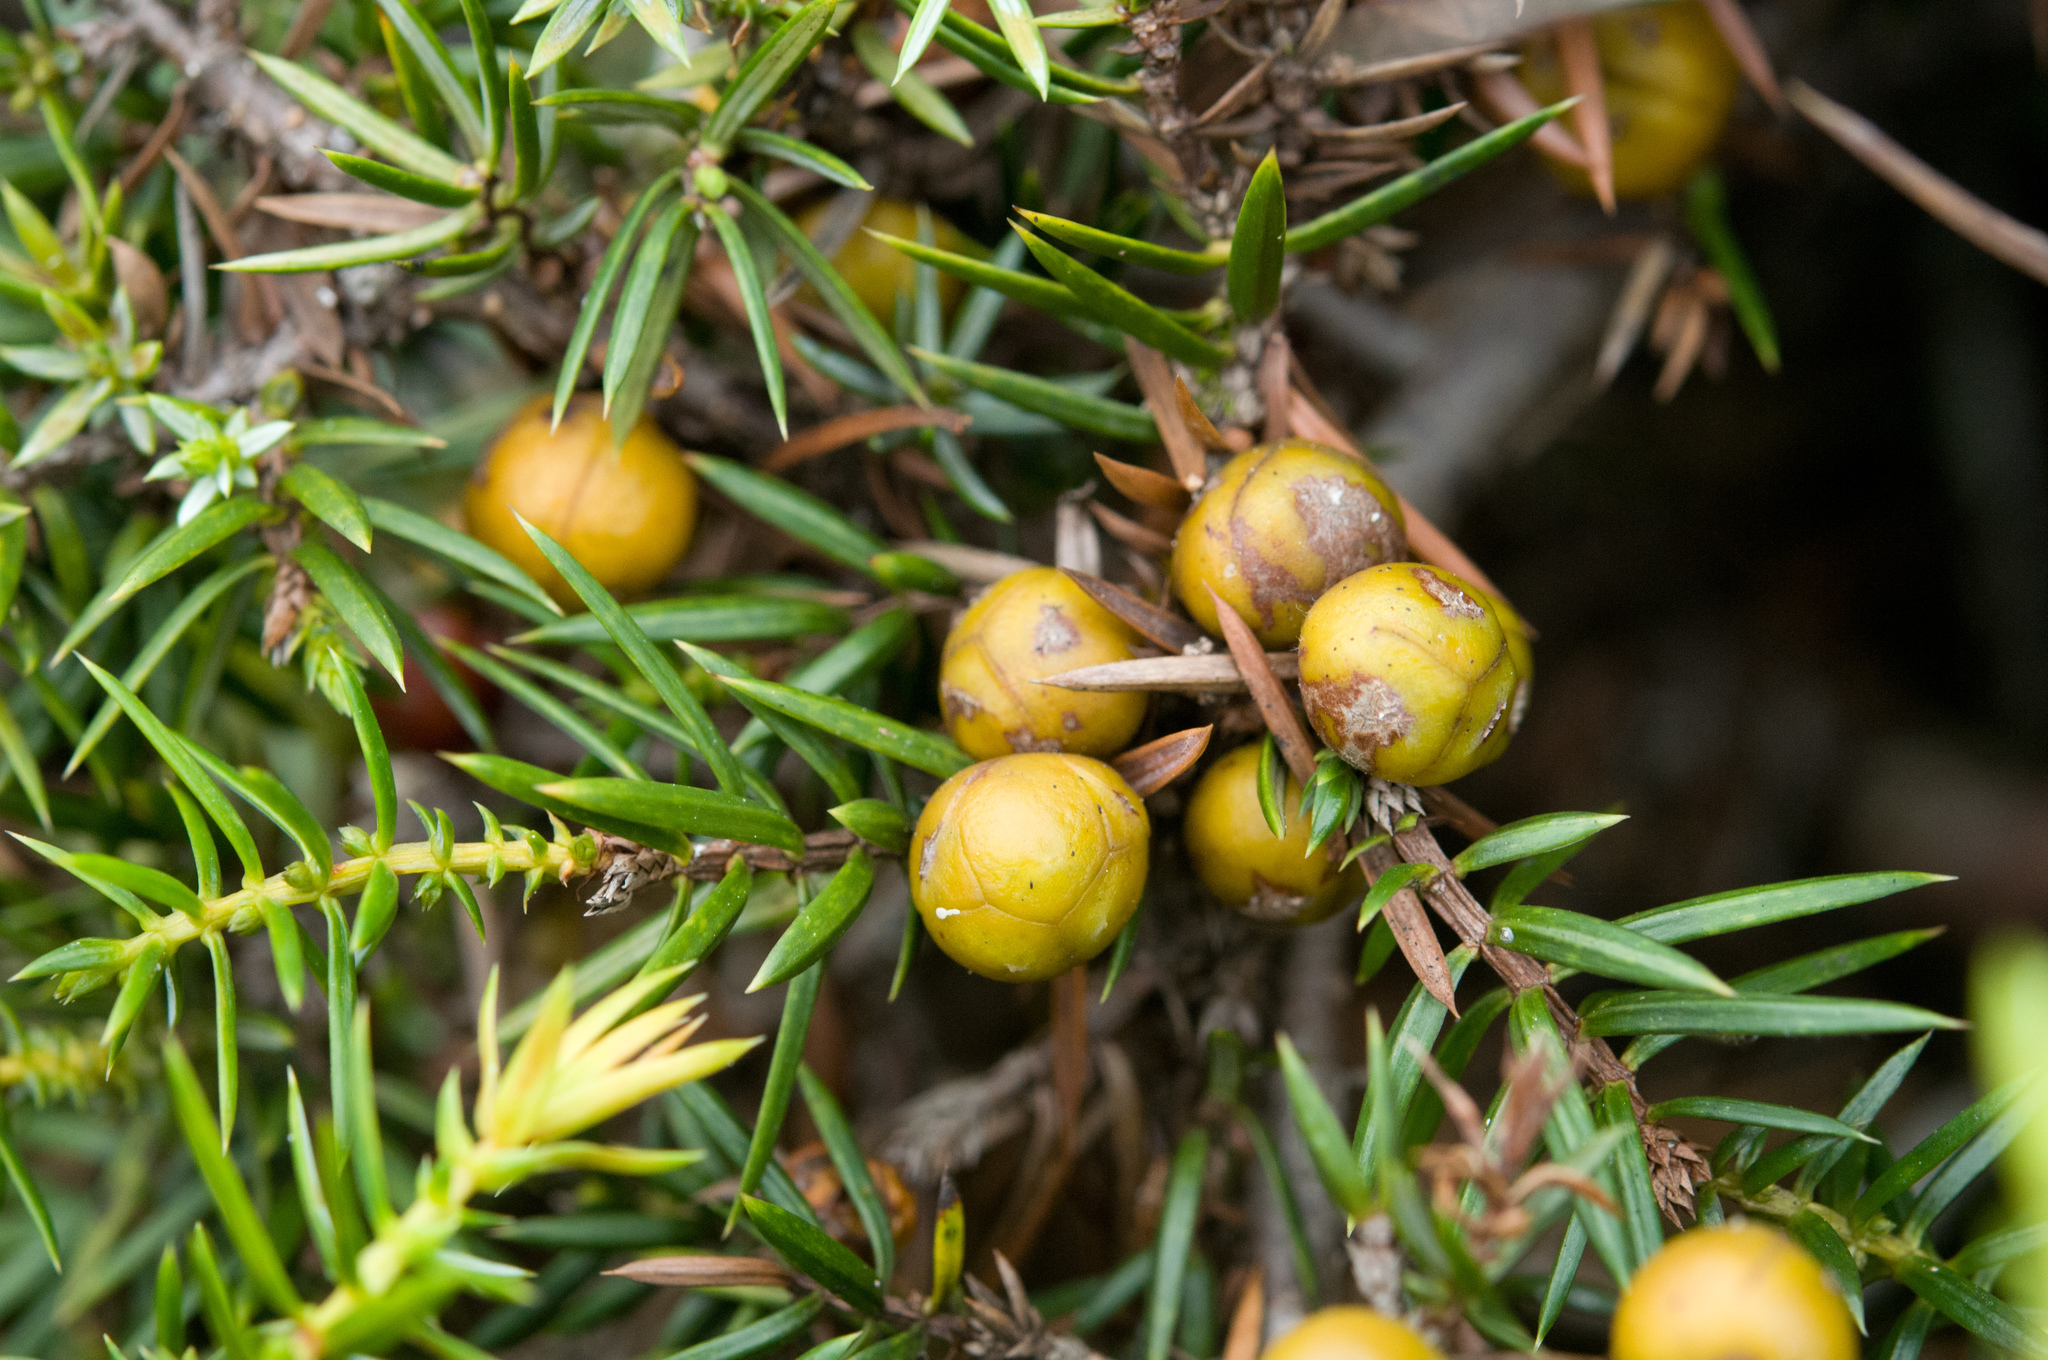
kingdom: Plantae
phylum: Tracheophyta
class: Pinopsida
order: Pinales
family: Cupressaceae
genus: Juniperus
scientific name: Juniperus formosana
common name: Formosan juniper
